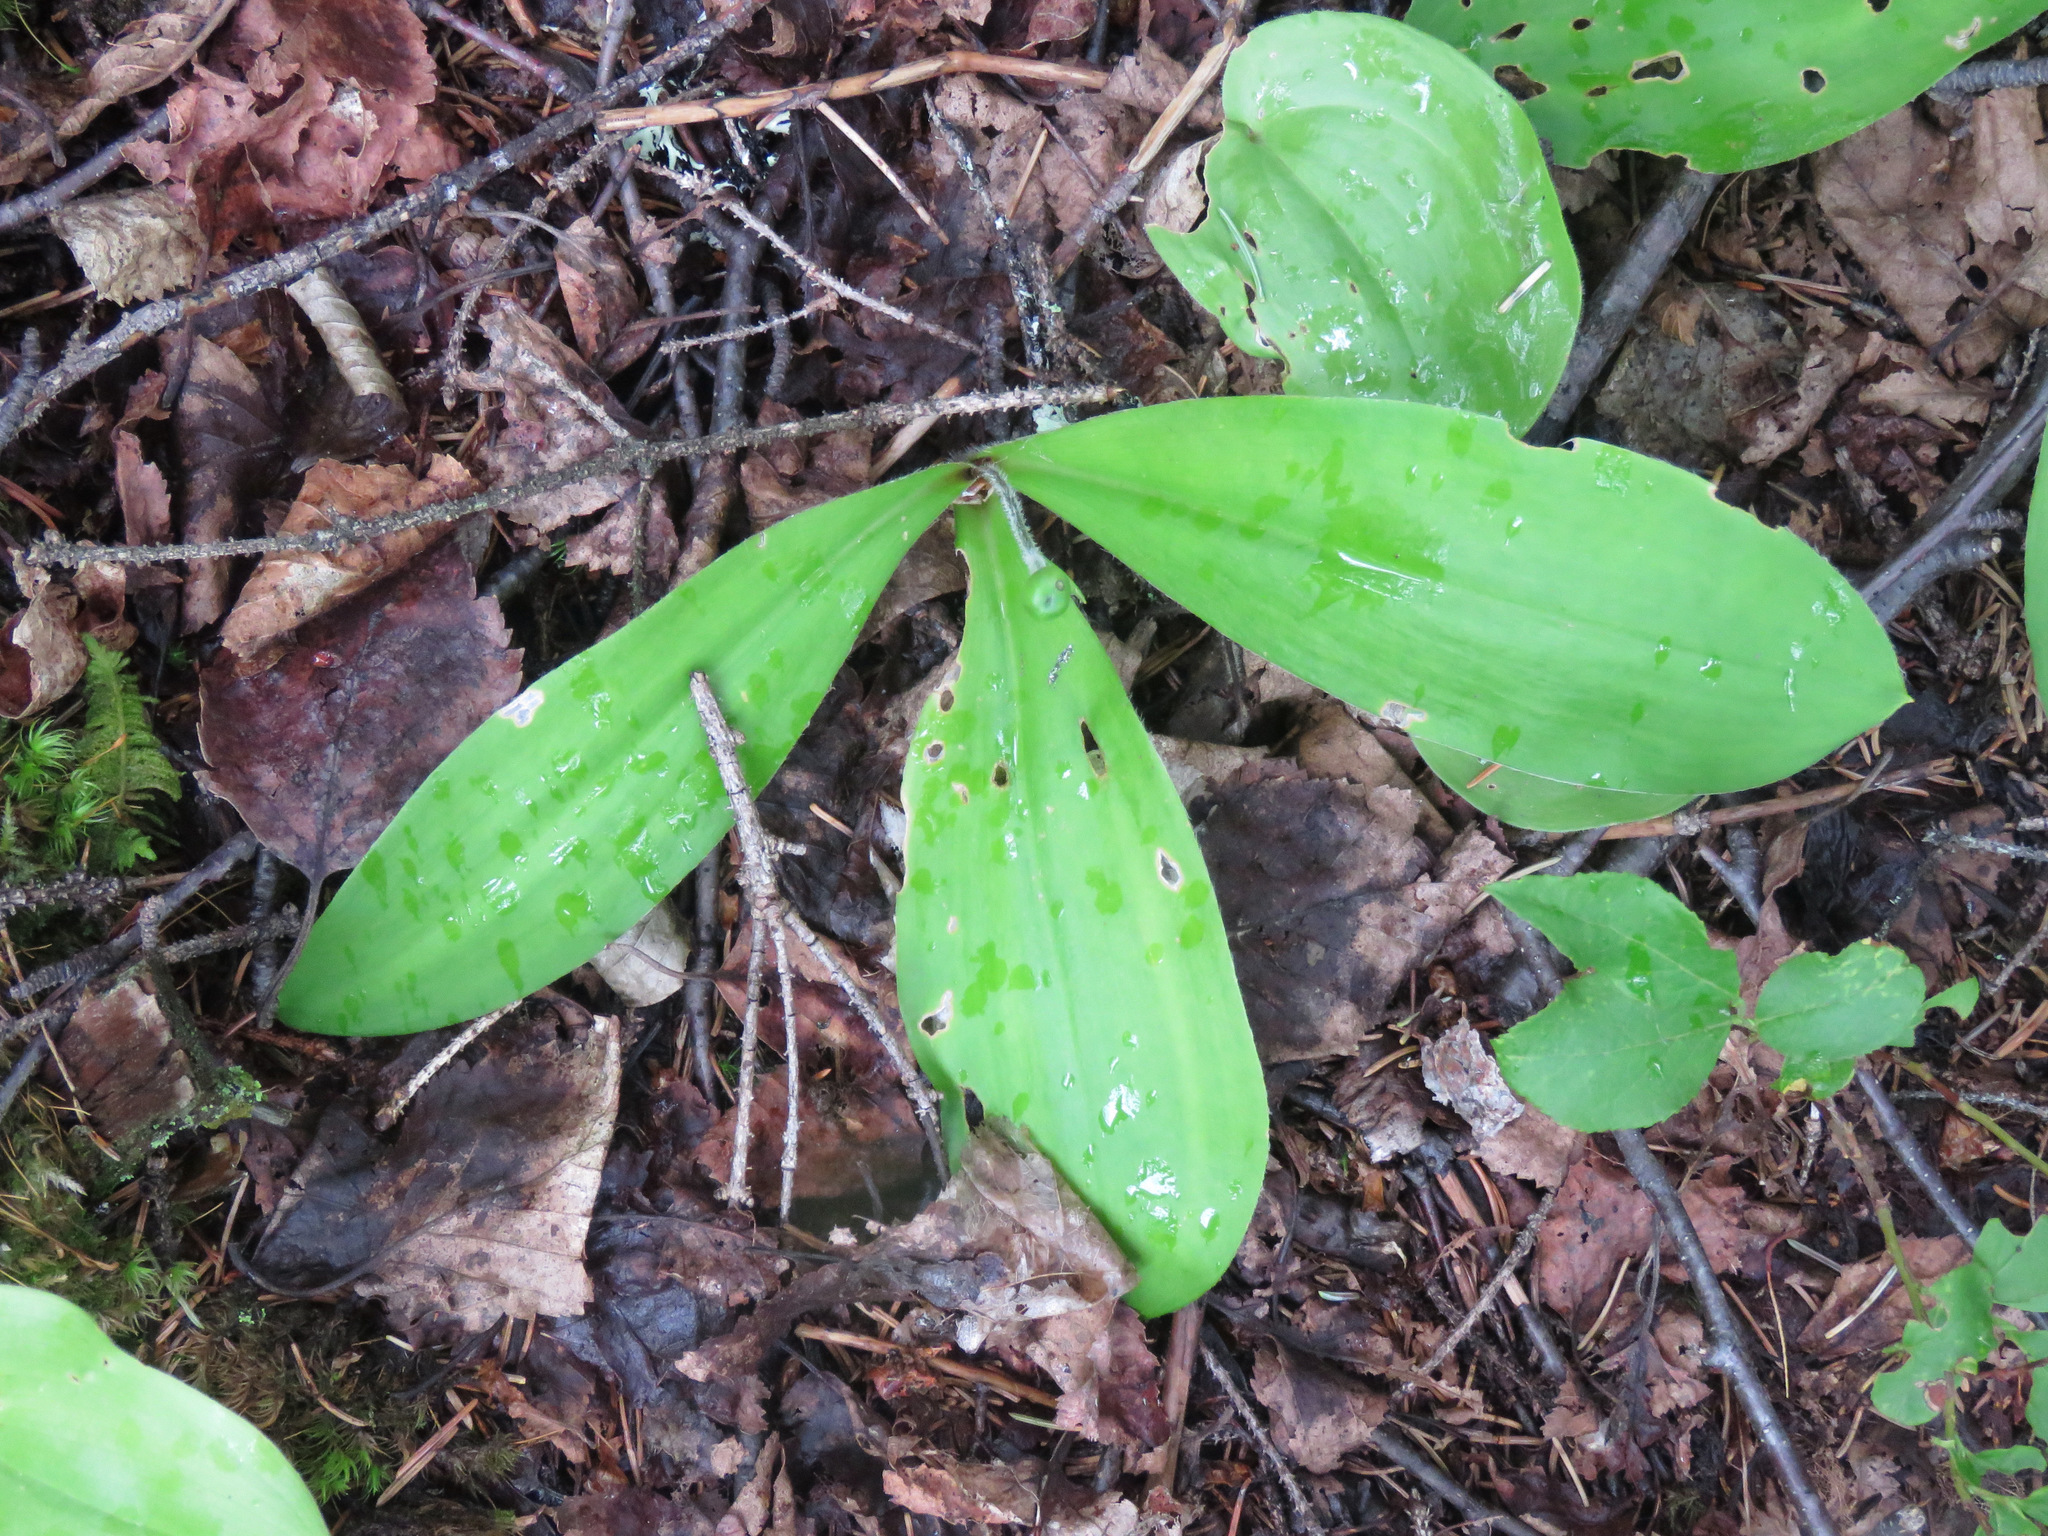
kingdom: Plantae
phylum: Tracheophyta
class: Liliopsida
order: Liliales
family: Liliaceae
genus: Clintonia
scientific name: Clintonia uniflora
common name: Queen's cup
